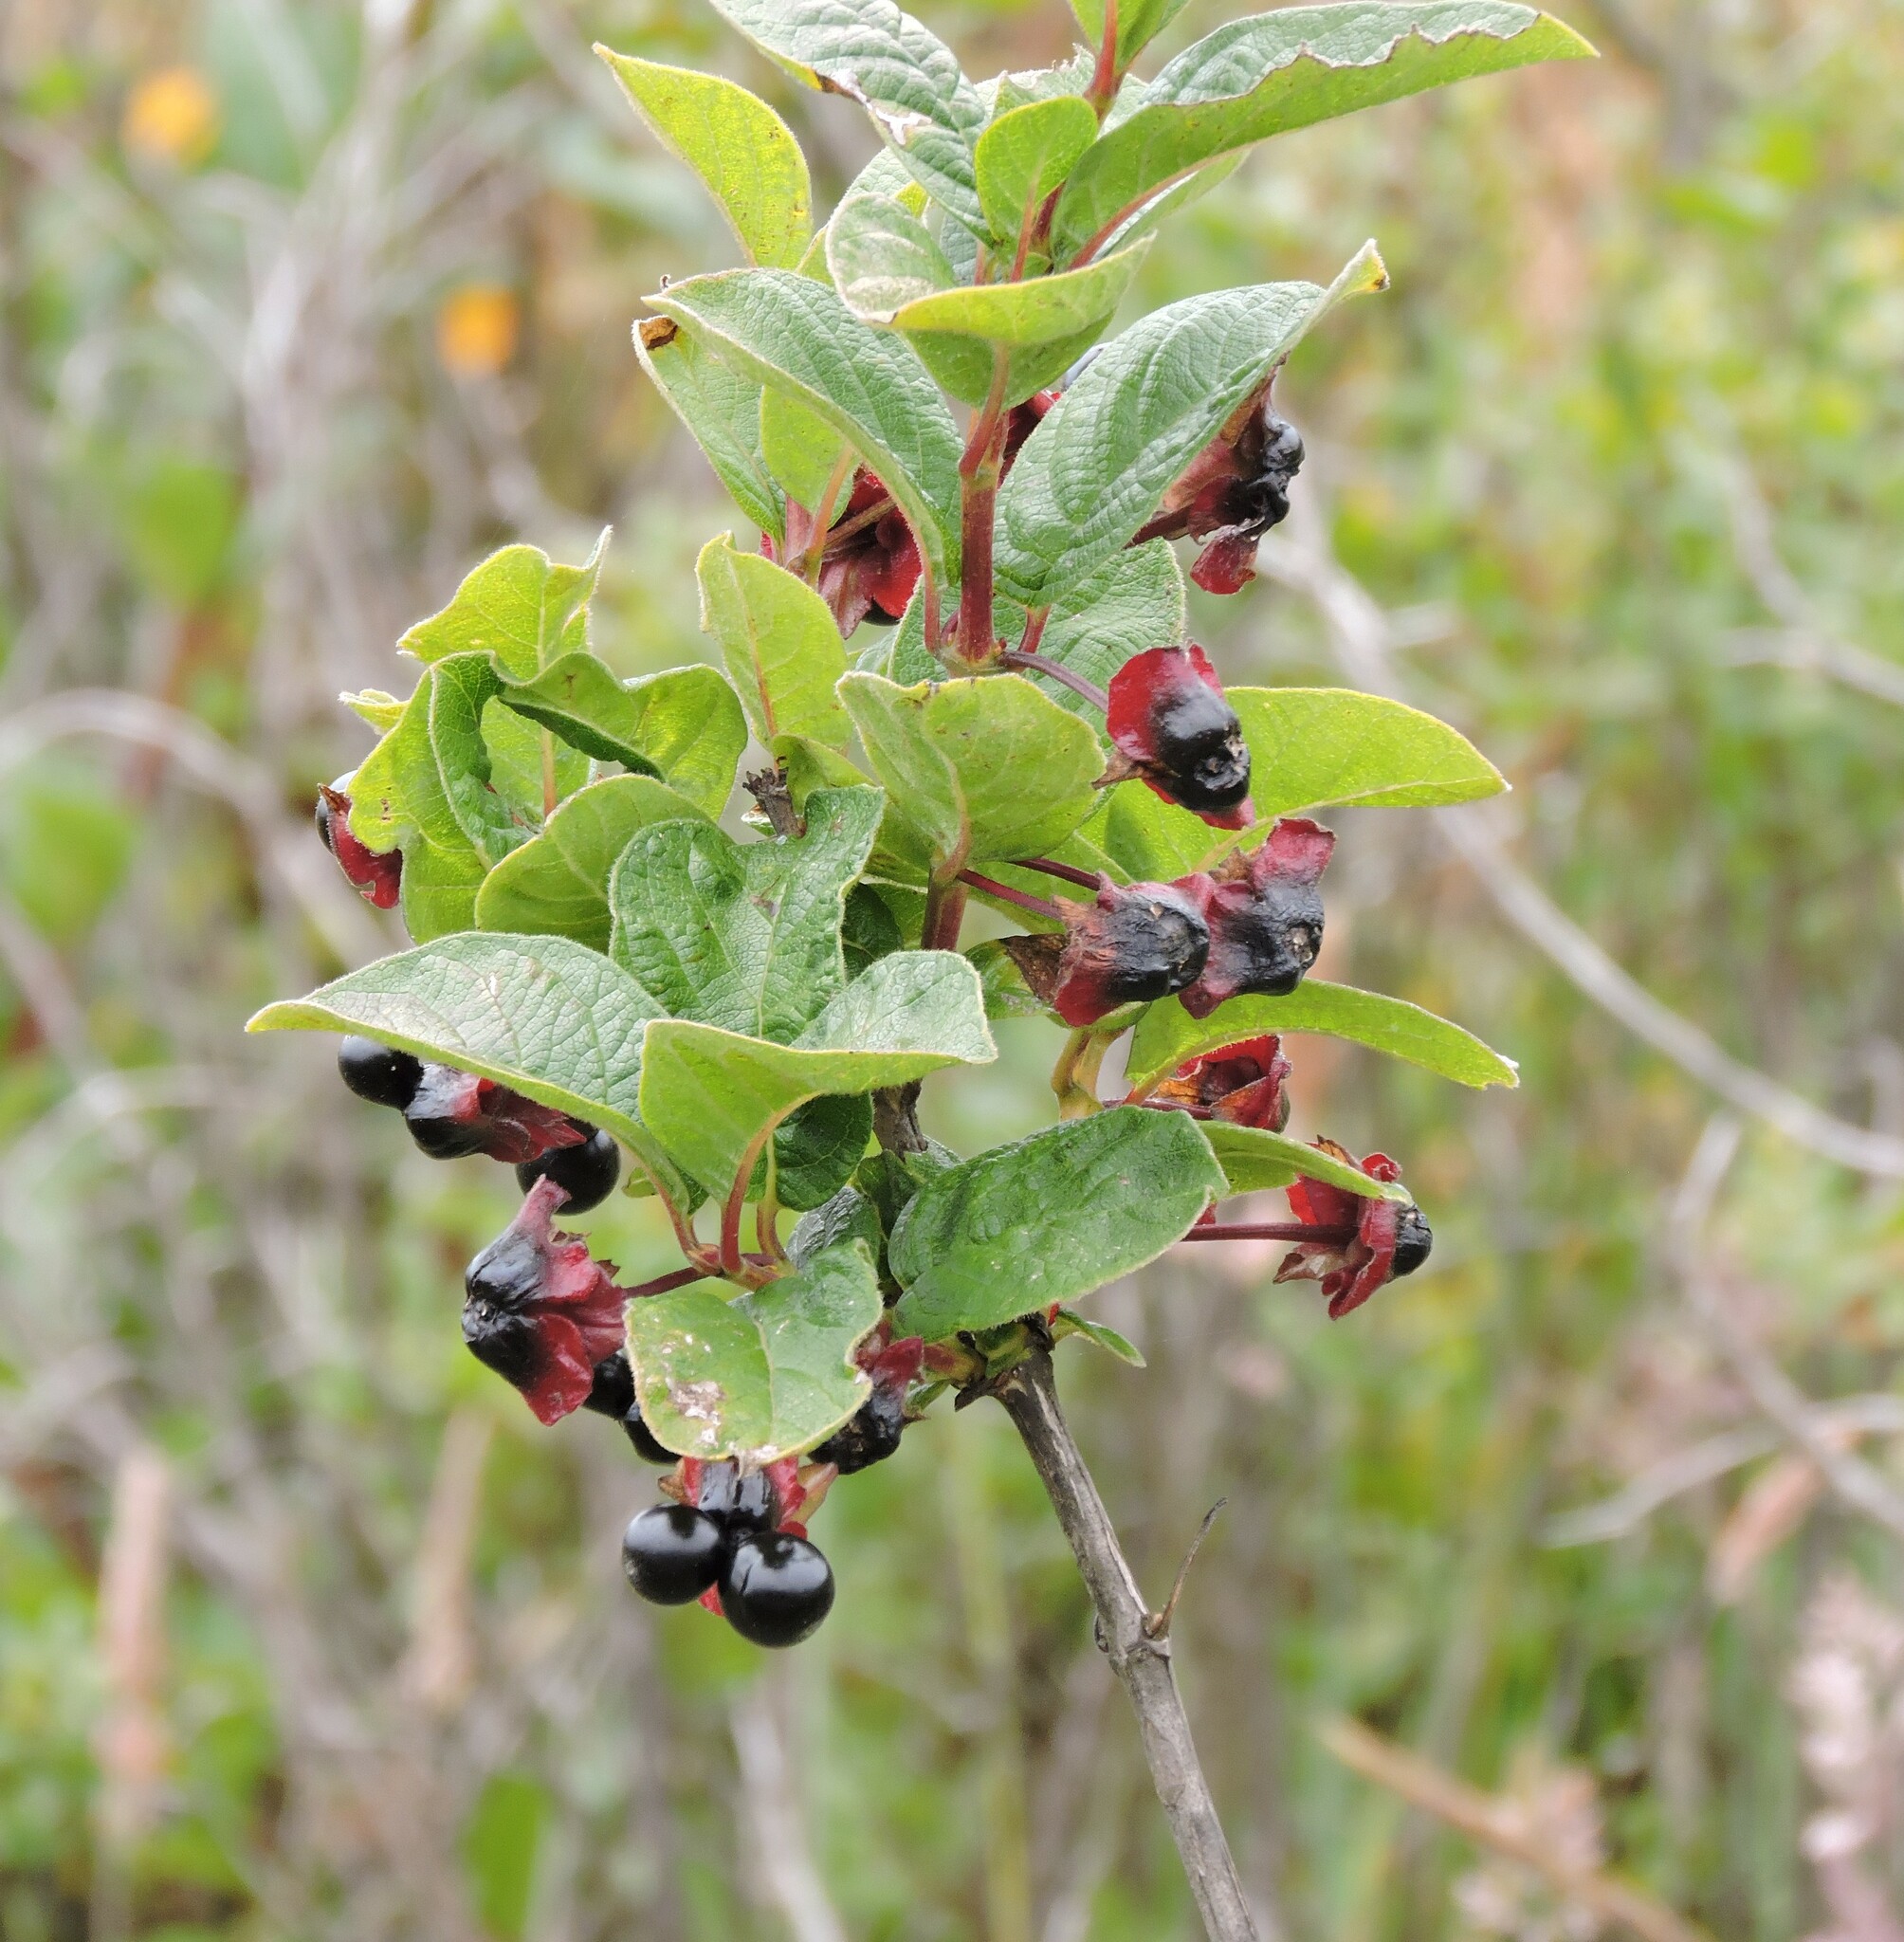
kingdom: Plantae
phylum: Tracheophyta
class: Magnoliopsida
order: Dipsacales
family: Caprifoliaceae
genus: Lonicera
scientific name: Lonicera involucrata
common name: Californian honeysuckle
